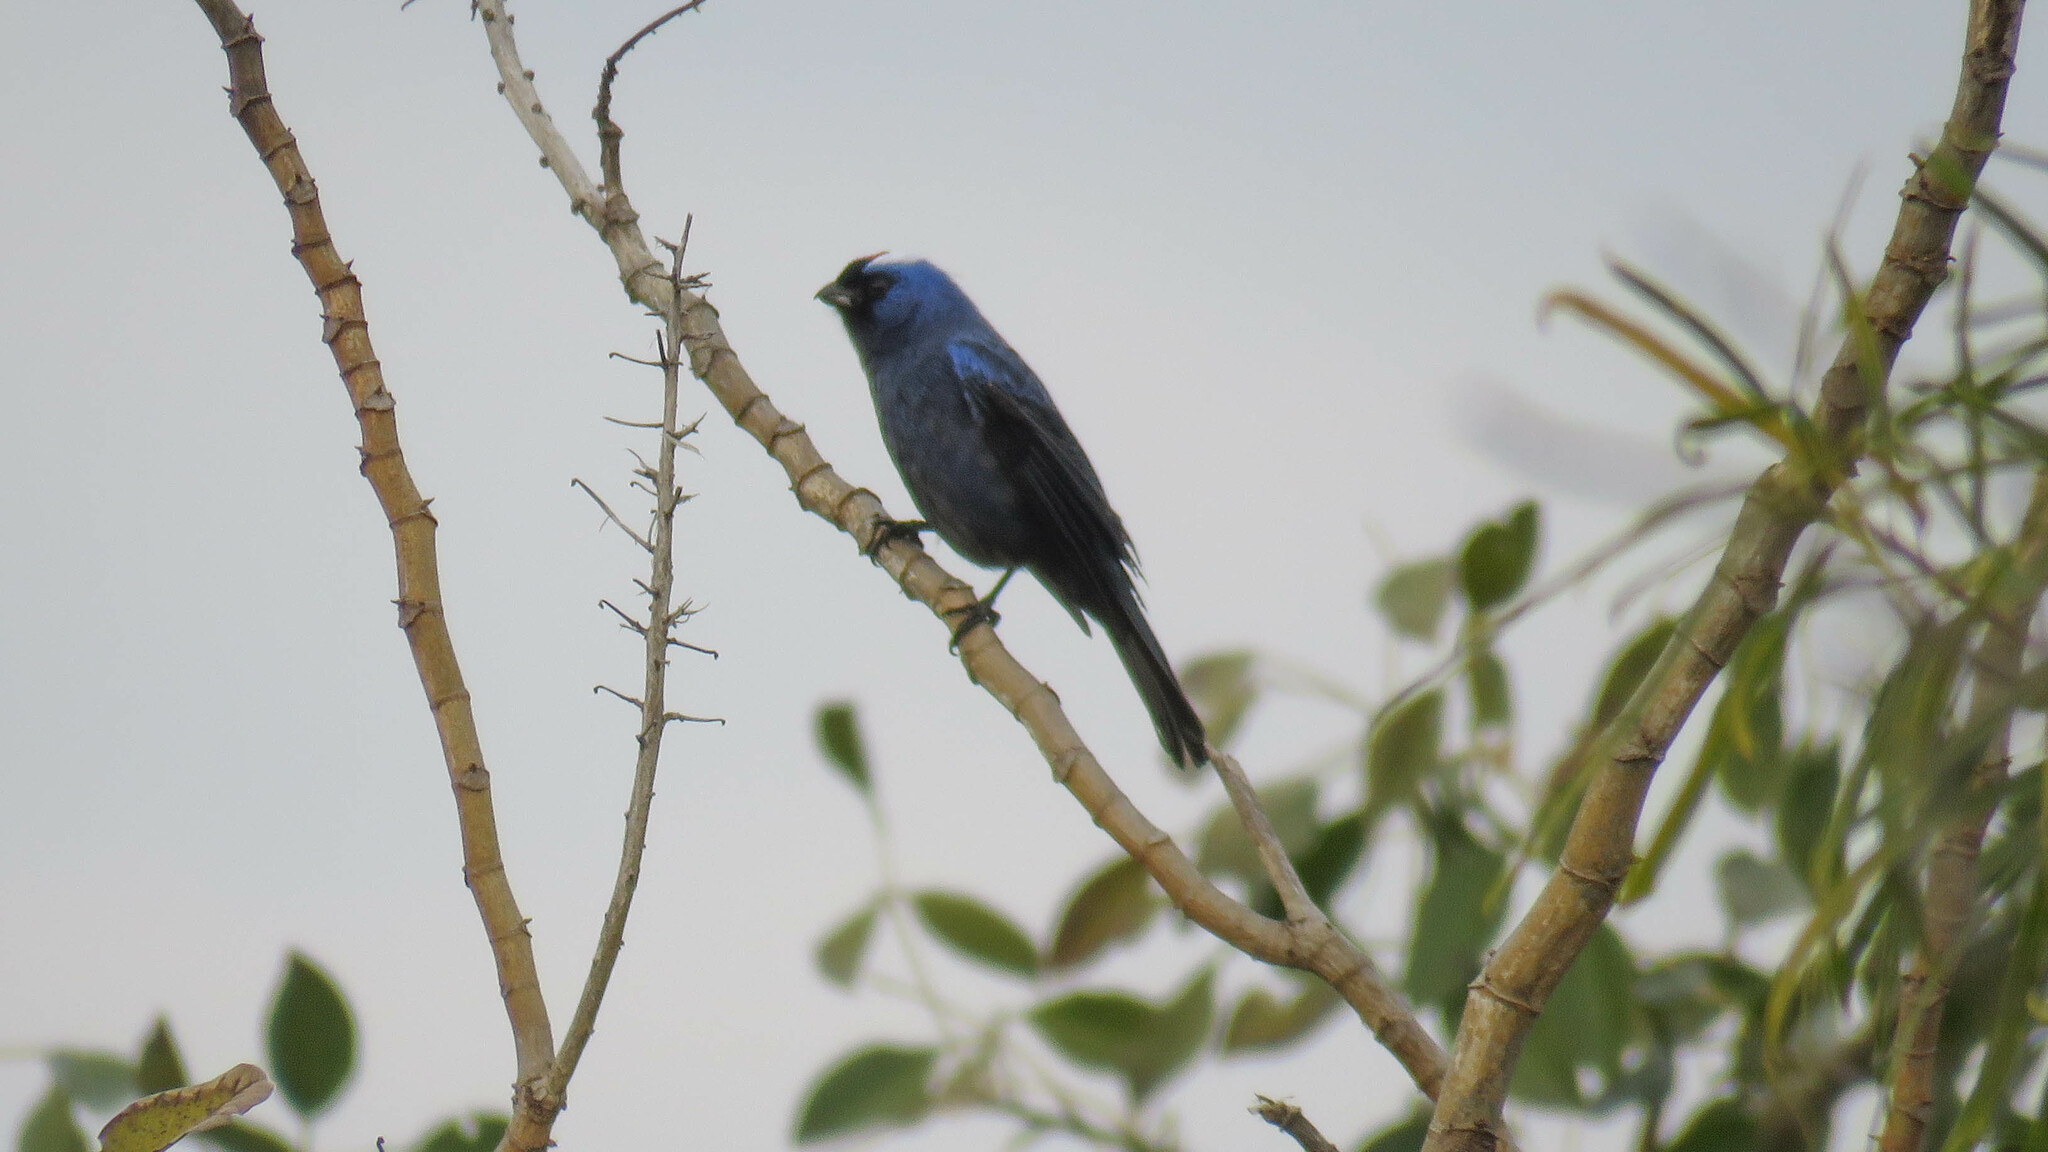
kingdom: Animalia
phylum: Chordata
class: Aves
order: Passeriformes
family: Thraupidae
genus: Stephanophorus
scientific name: Stephanophorus diadematus
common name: Diademed tanager
